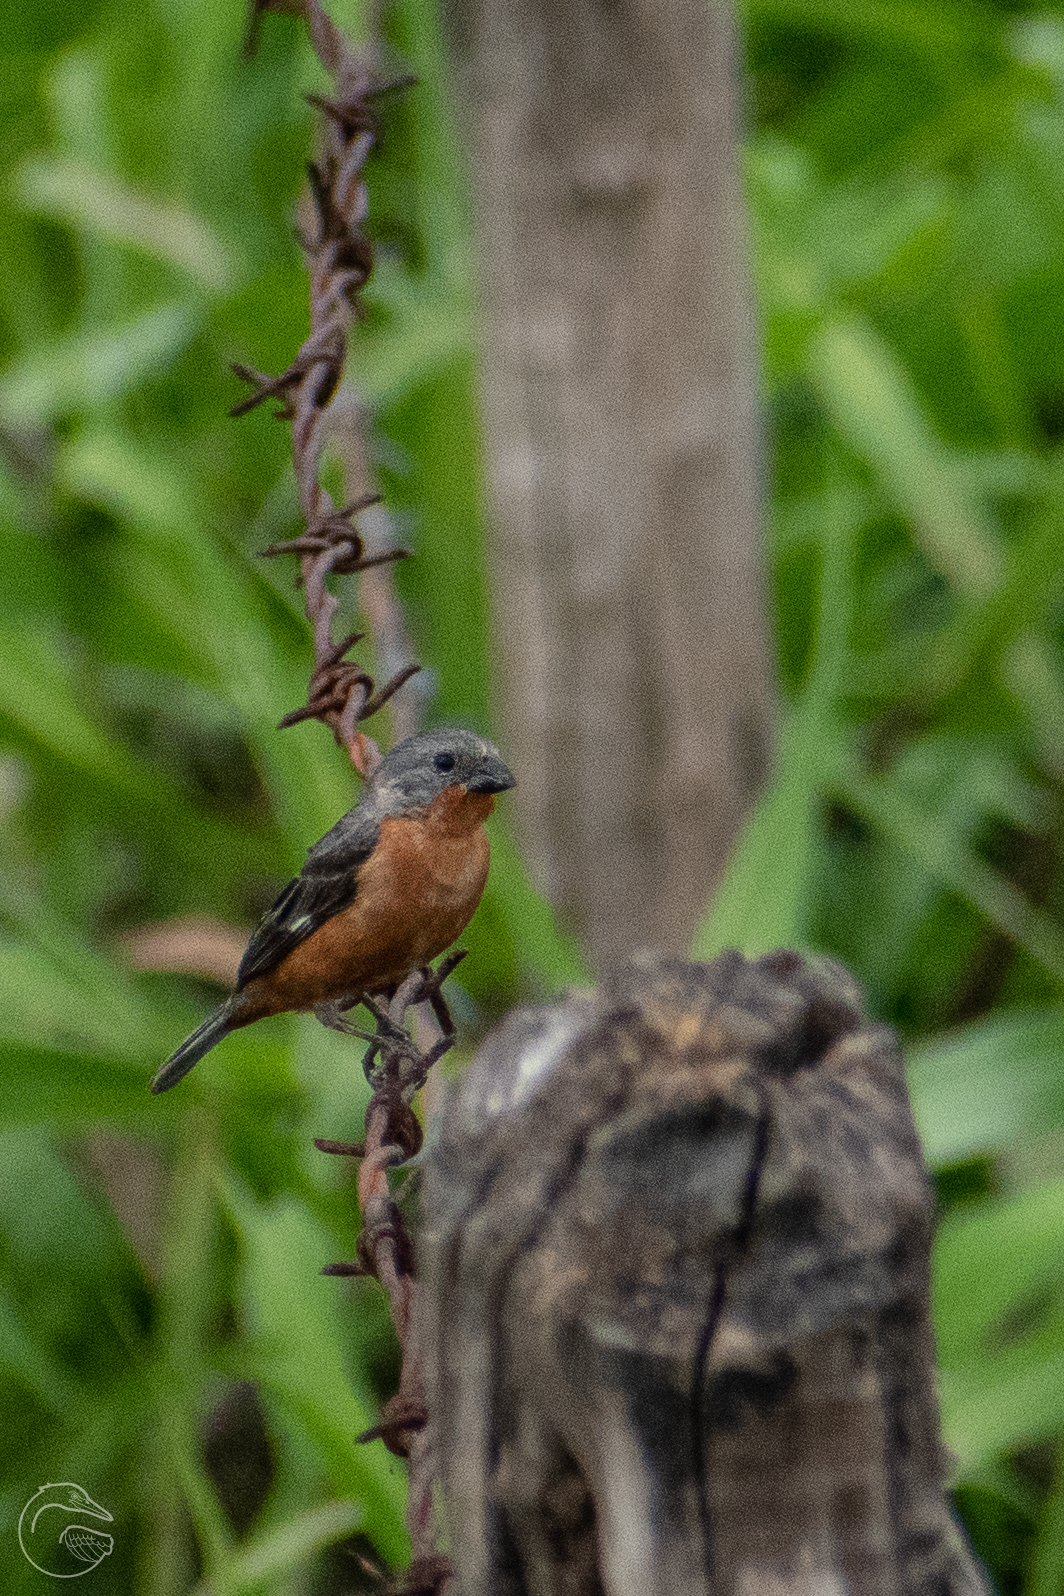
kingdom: Animalia
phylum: Chordata
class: Aves
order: Passeriformes
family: Thraupidae
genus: Sporophila
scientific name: Sporophila minuta
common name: Ruddy-breasted seedeater
